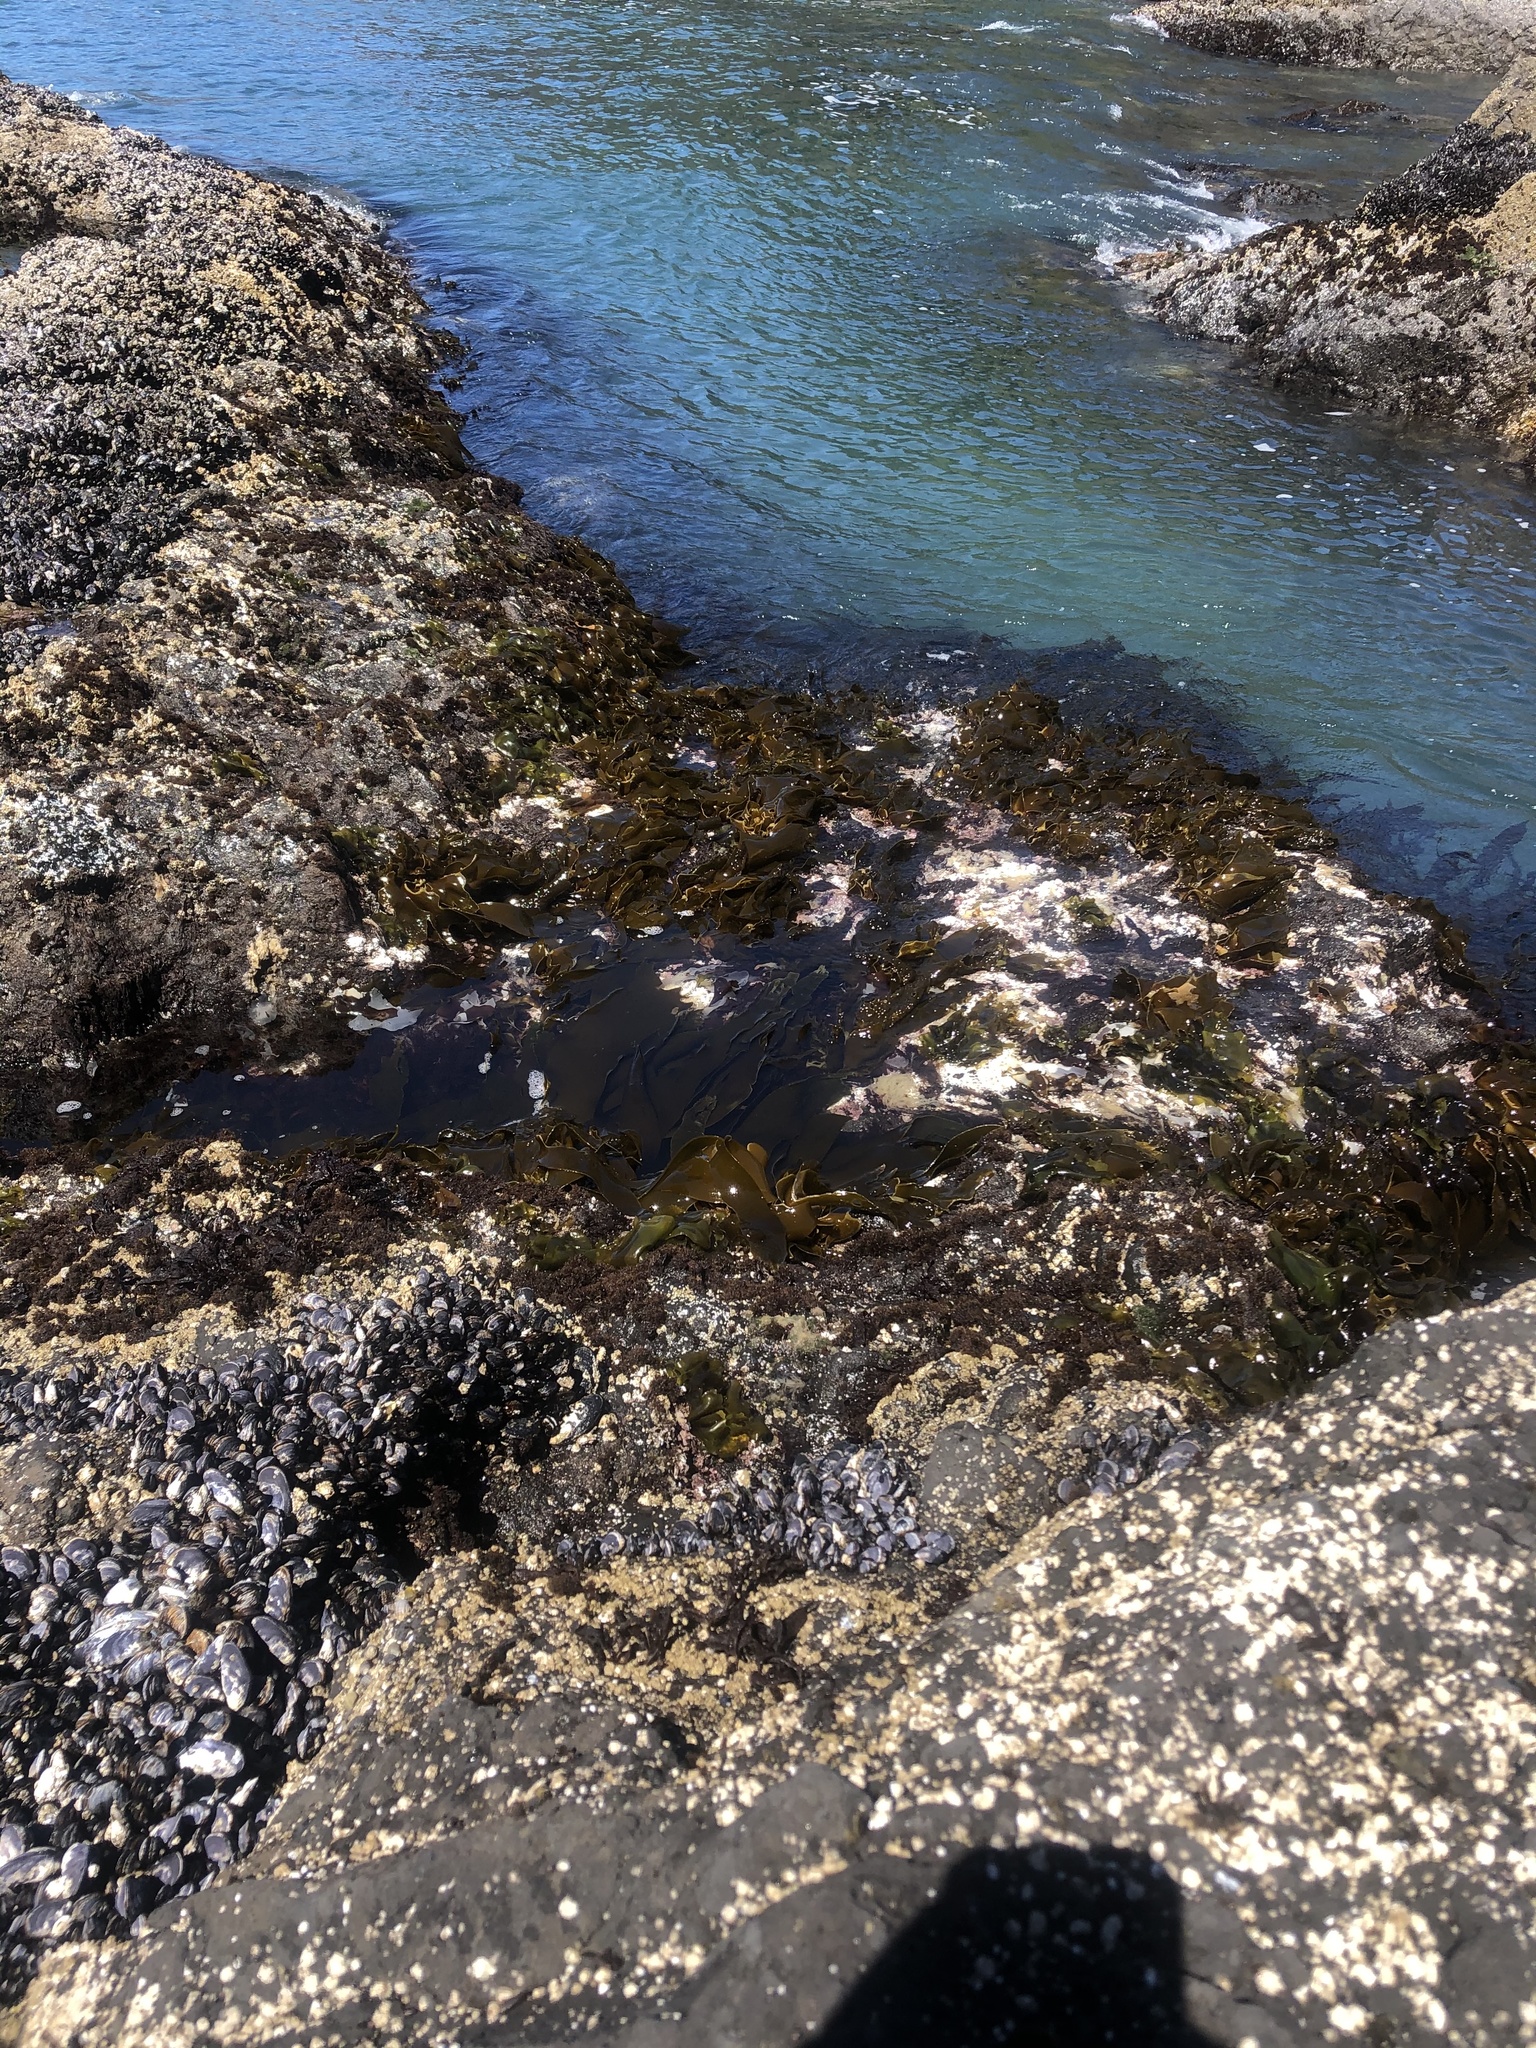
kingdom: Chromista
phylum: Ochrophyta
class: Phaeophyceae
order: Laminariales
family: Laminariaceae
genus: Hedophyllum
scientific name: Hedophyllum sessile
